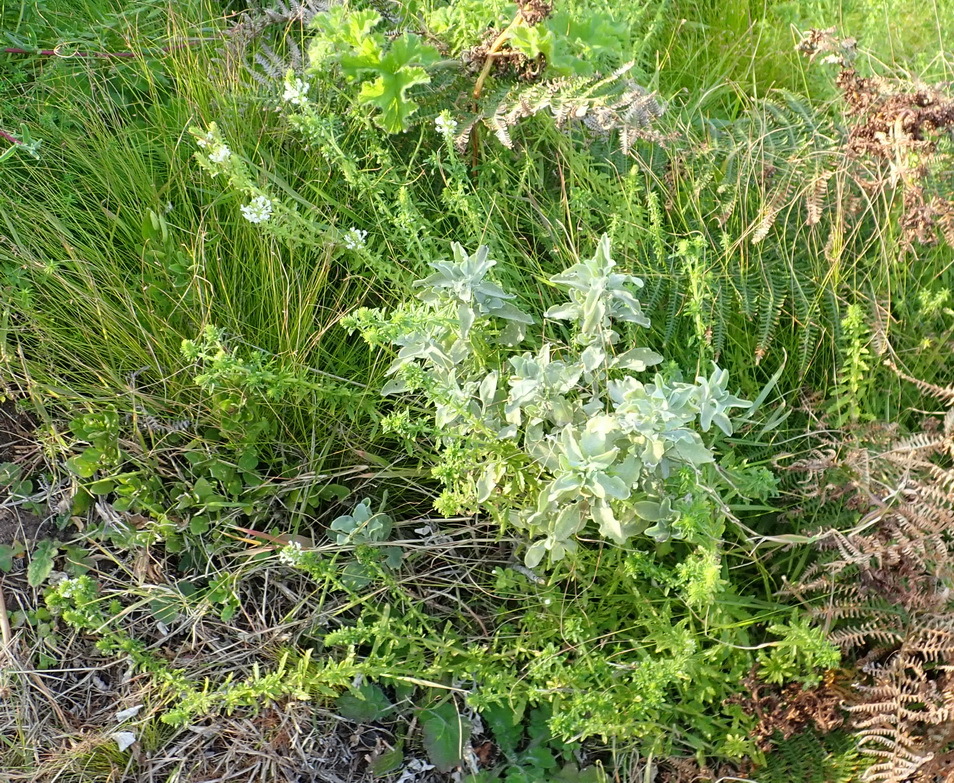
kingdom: Plantae
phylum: Tracheophyta
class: Magnoliopsida
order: Lamiales
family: Scrophulariaceae
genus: Dischisma
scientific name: Dischisma ciliatum
